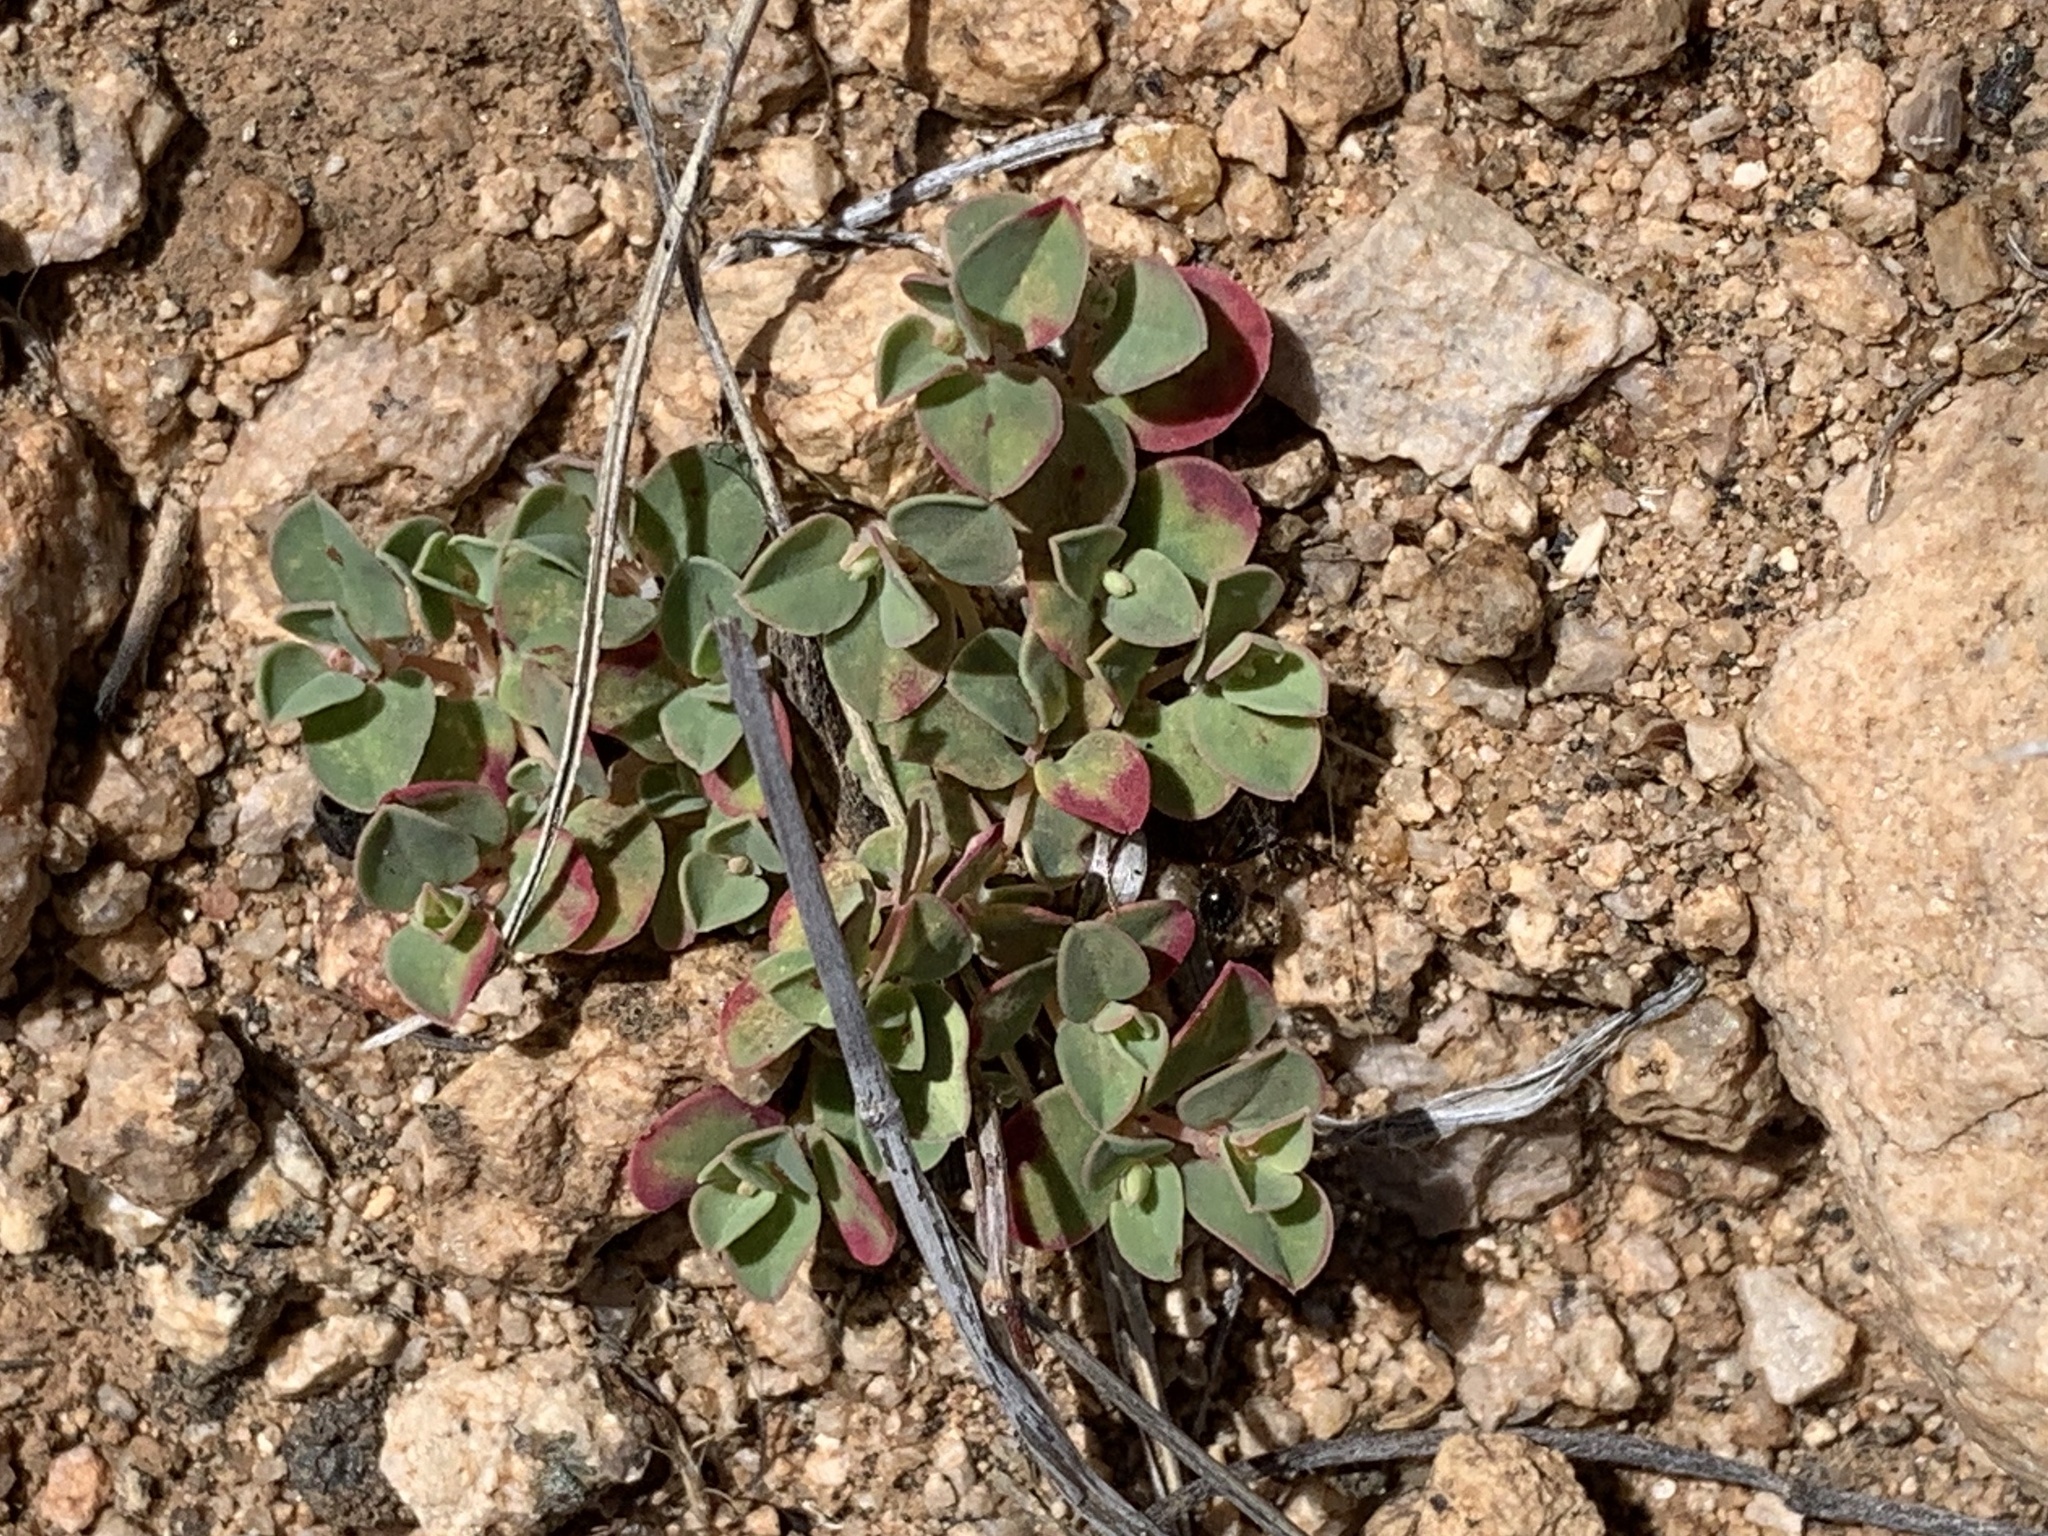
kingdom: Plantae
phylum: Tracheophyta
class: Magnoliopsida
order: Malpighiales
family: Euphorbiaceae
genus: Euphorbia
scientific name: Euphorbia albomarginata
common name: Whitemargin sandmat
